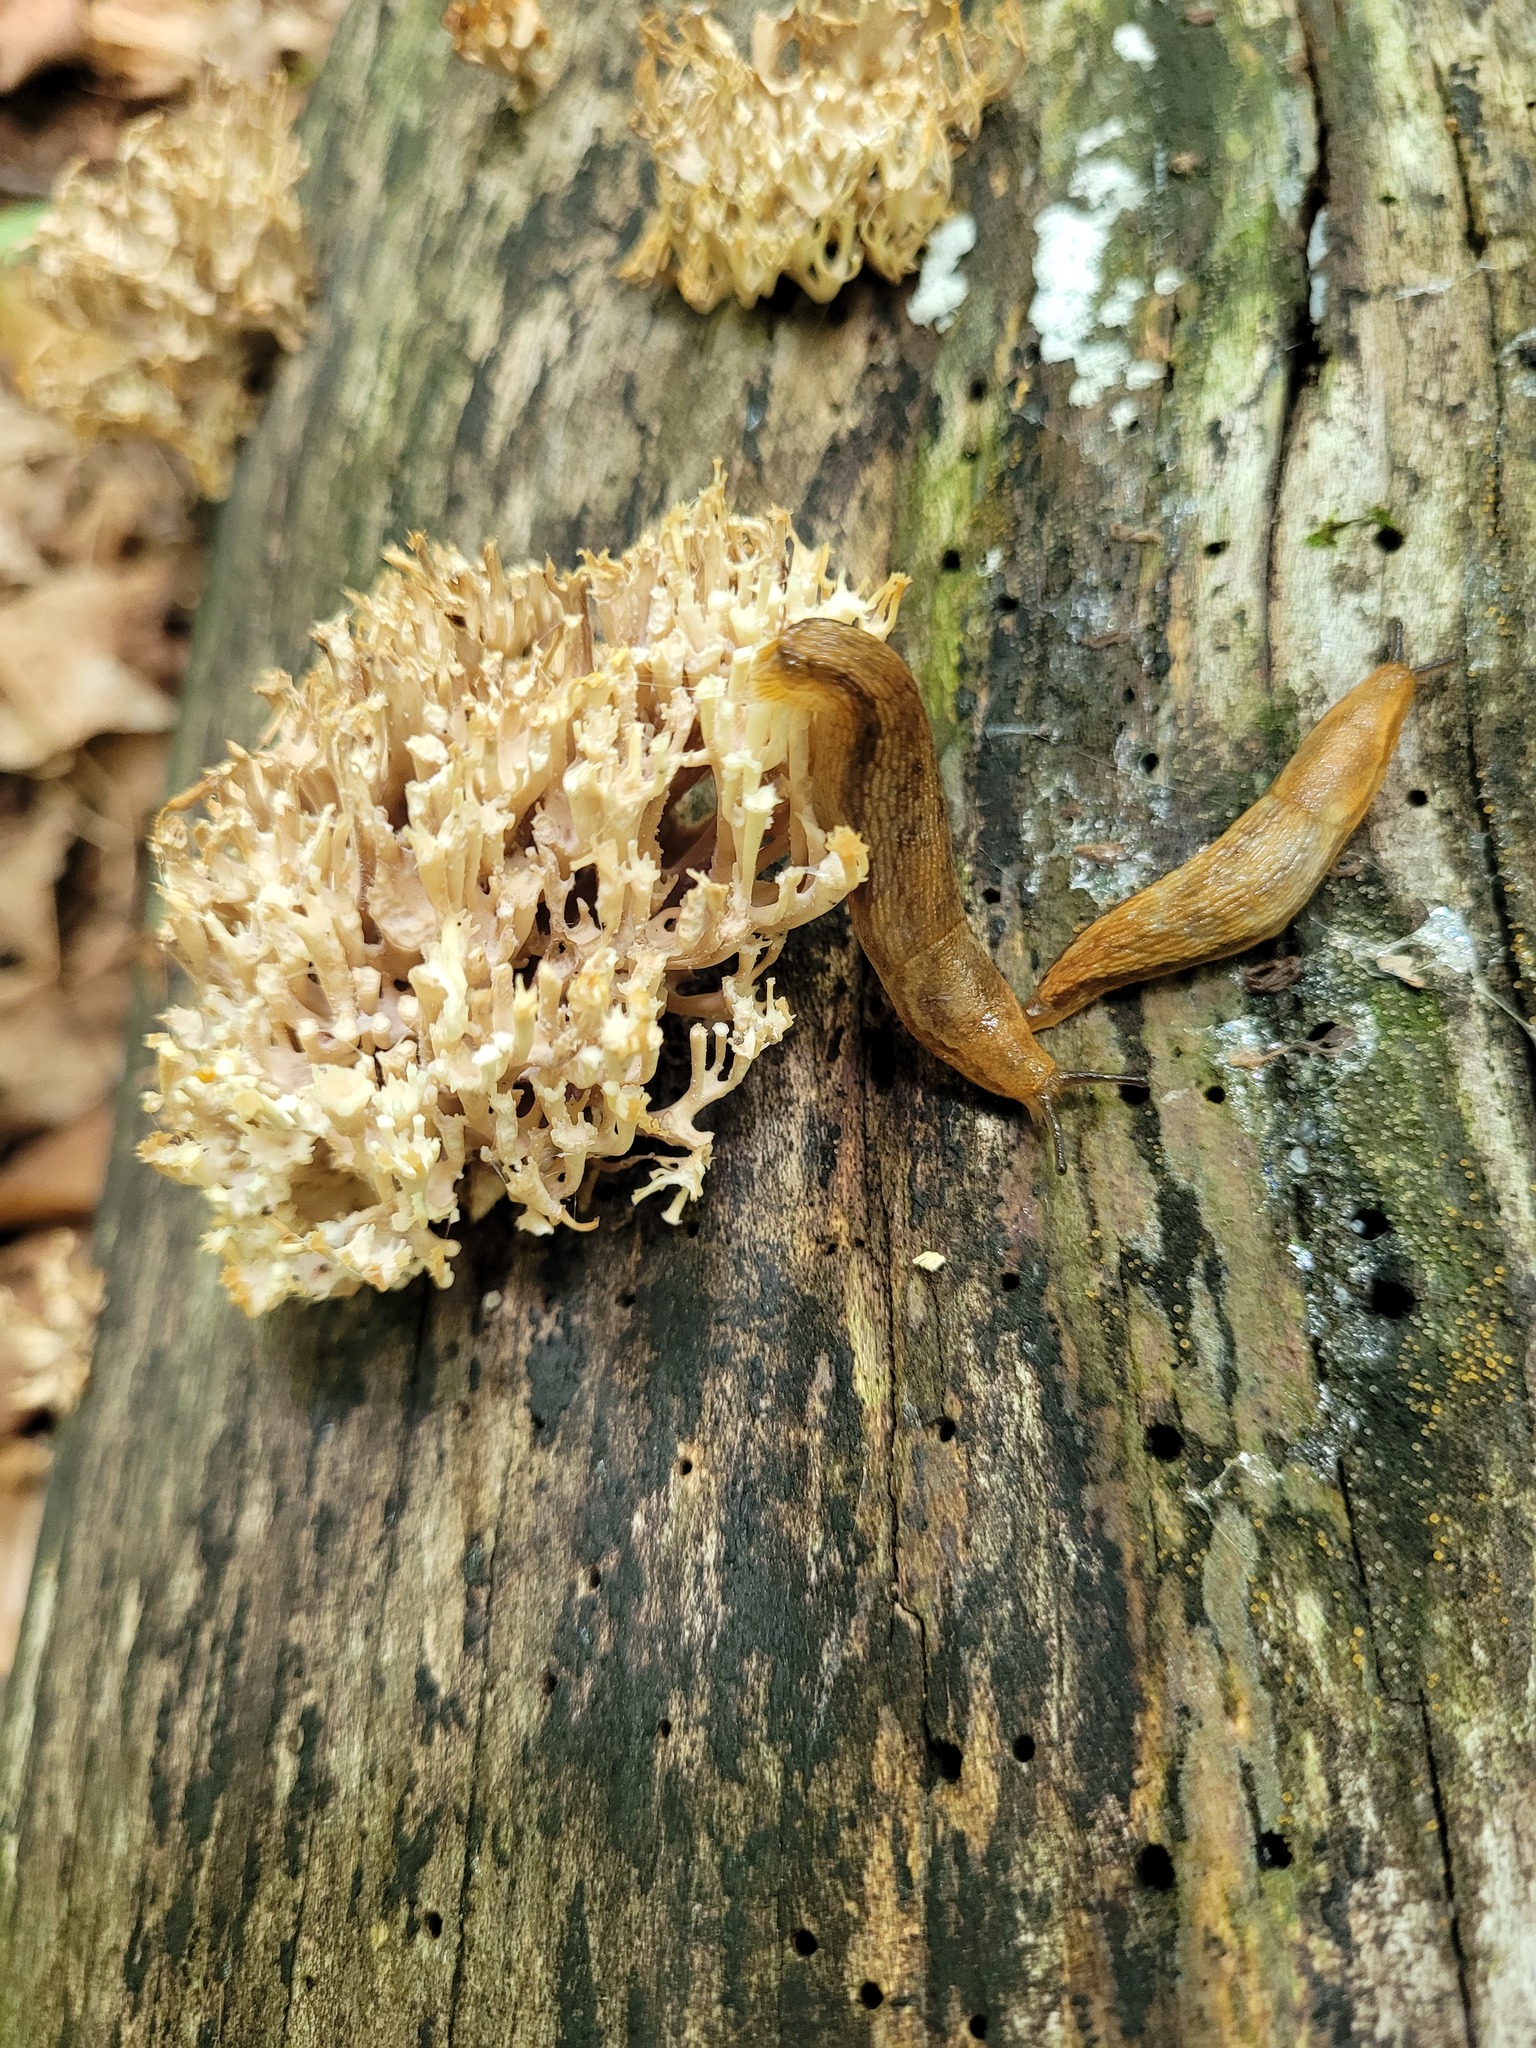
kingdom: Fungi
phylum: Basidiomycota
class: Agaricomycetes
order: Russulales
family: Auriscalpiaceae
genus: Artomyces
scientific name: Artomyces pyxidatus
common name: Crown-tipped coral fungus
